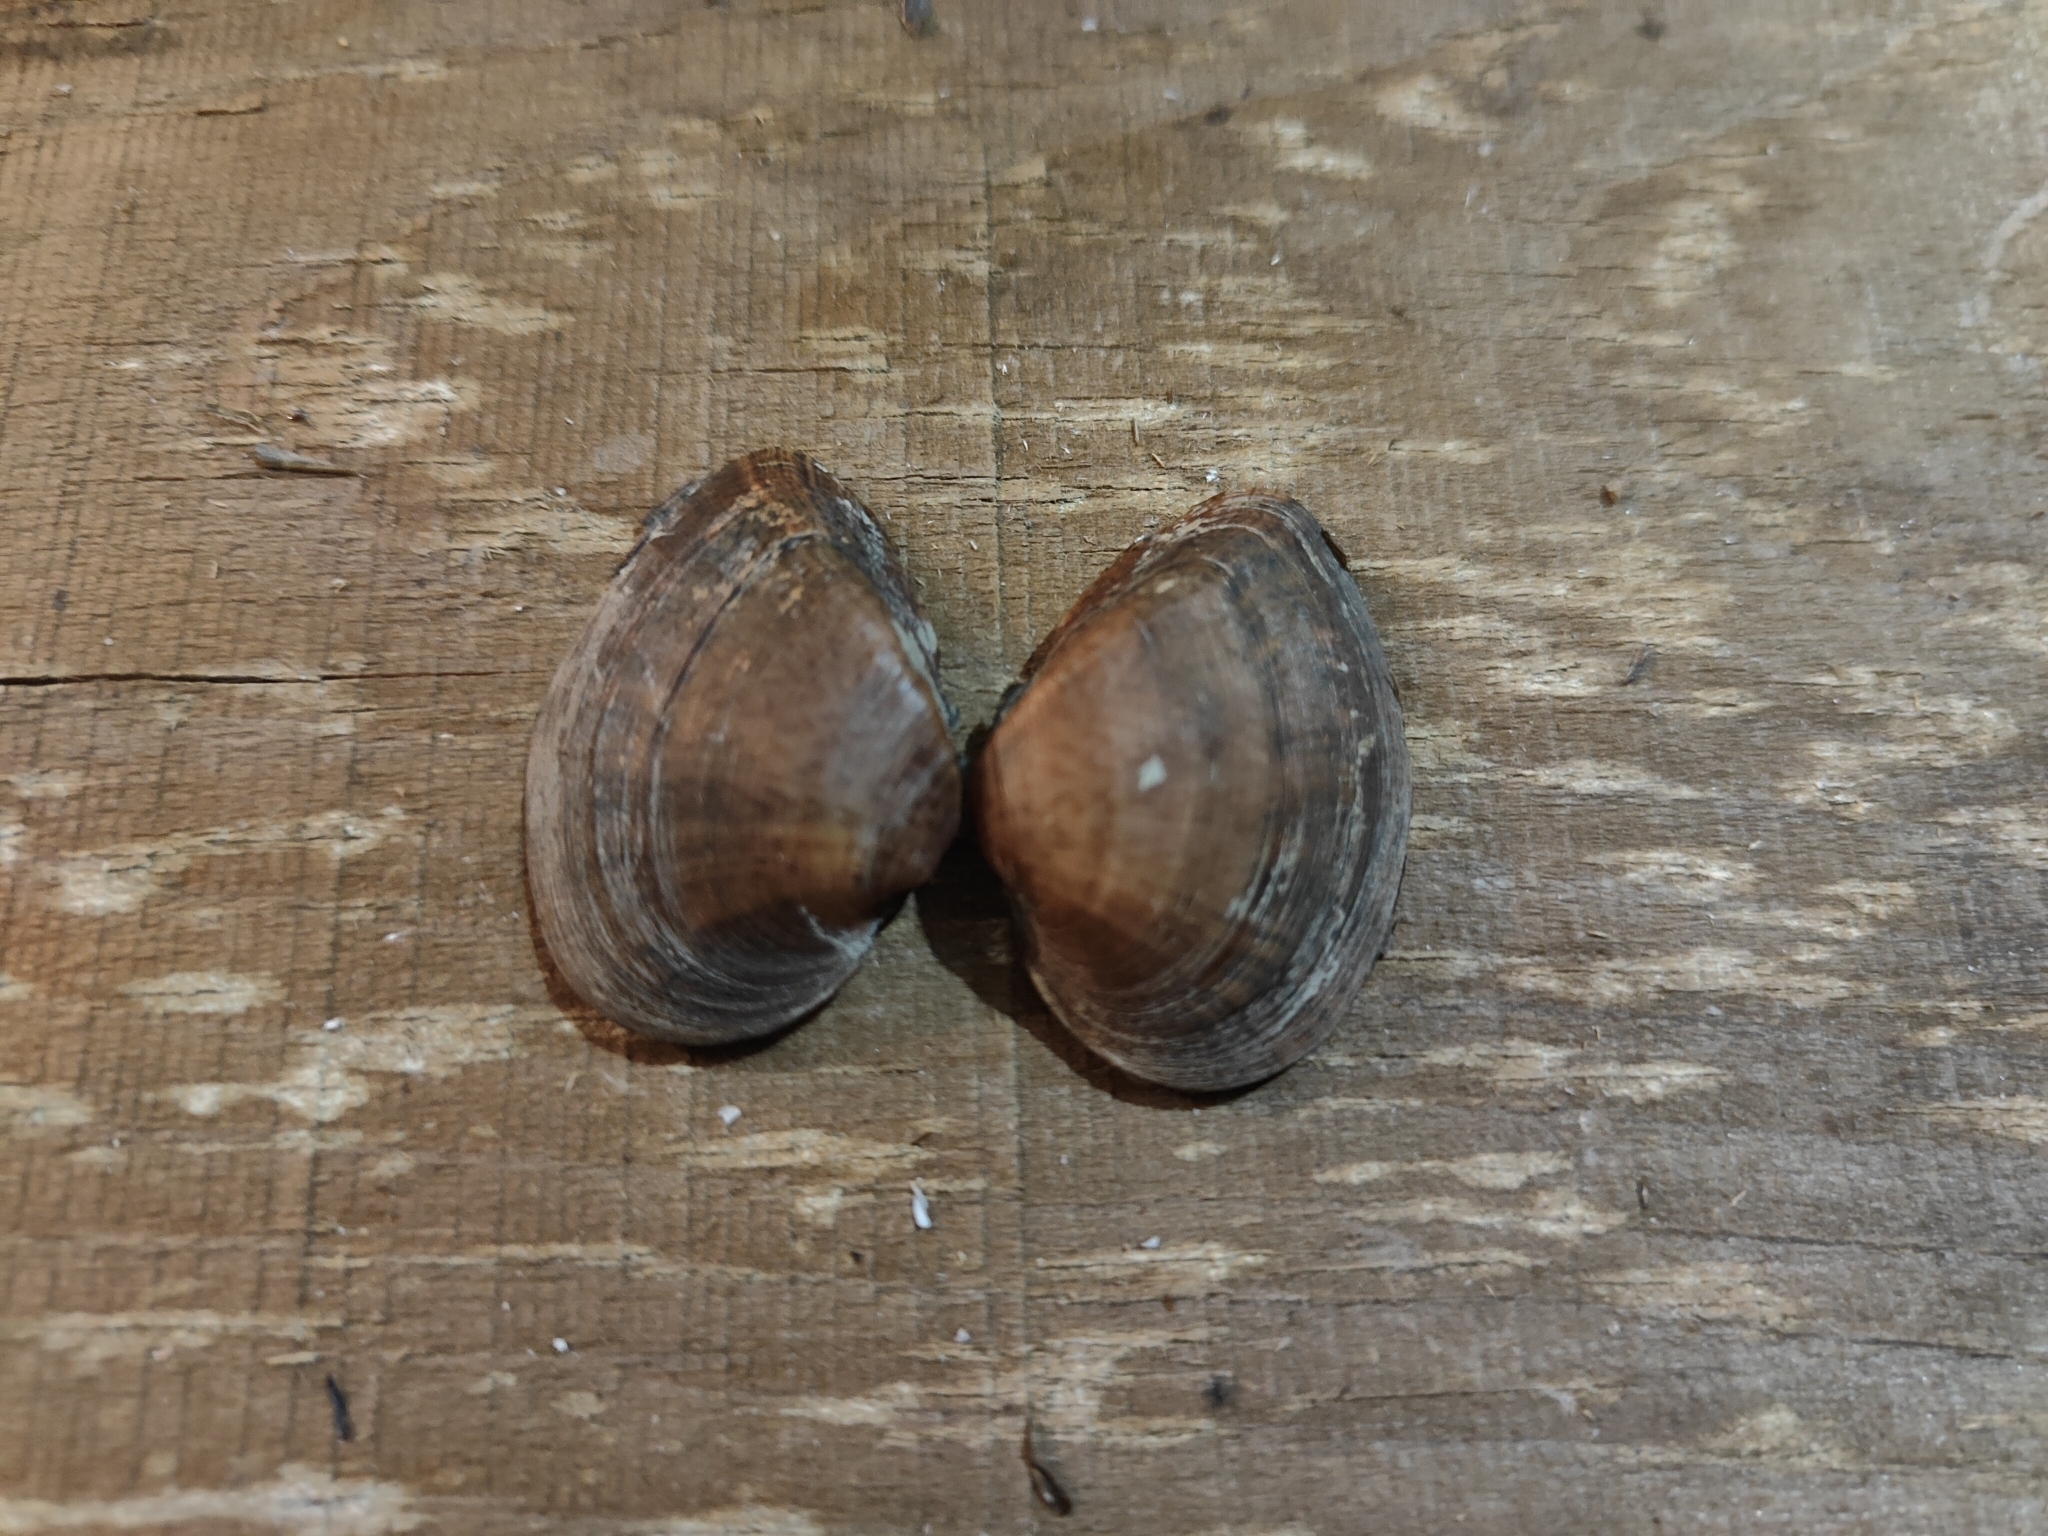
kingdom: Animalia
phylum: Mollusca
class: Bivalvia
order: Unionida
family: Unionidae
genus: Truncilla
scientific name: Truncilla truncata
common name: Deertoe
